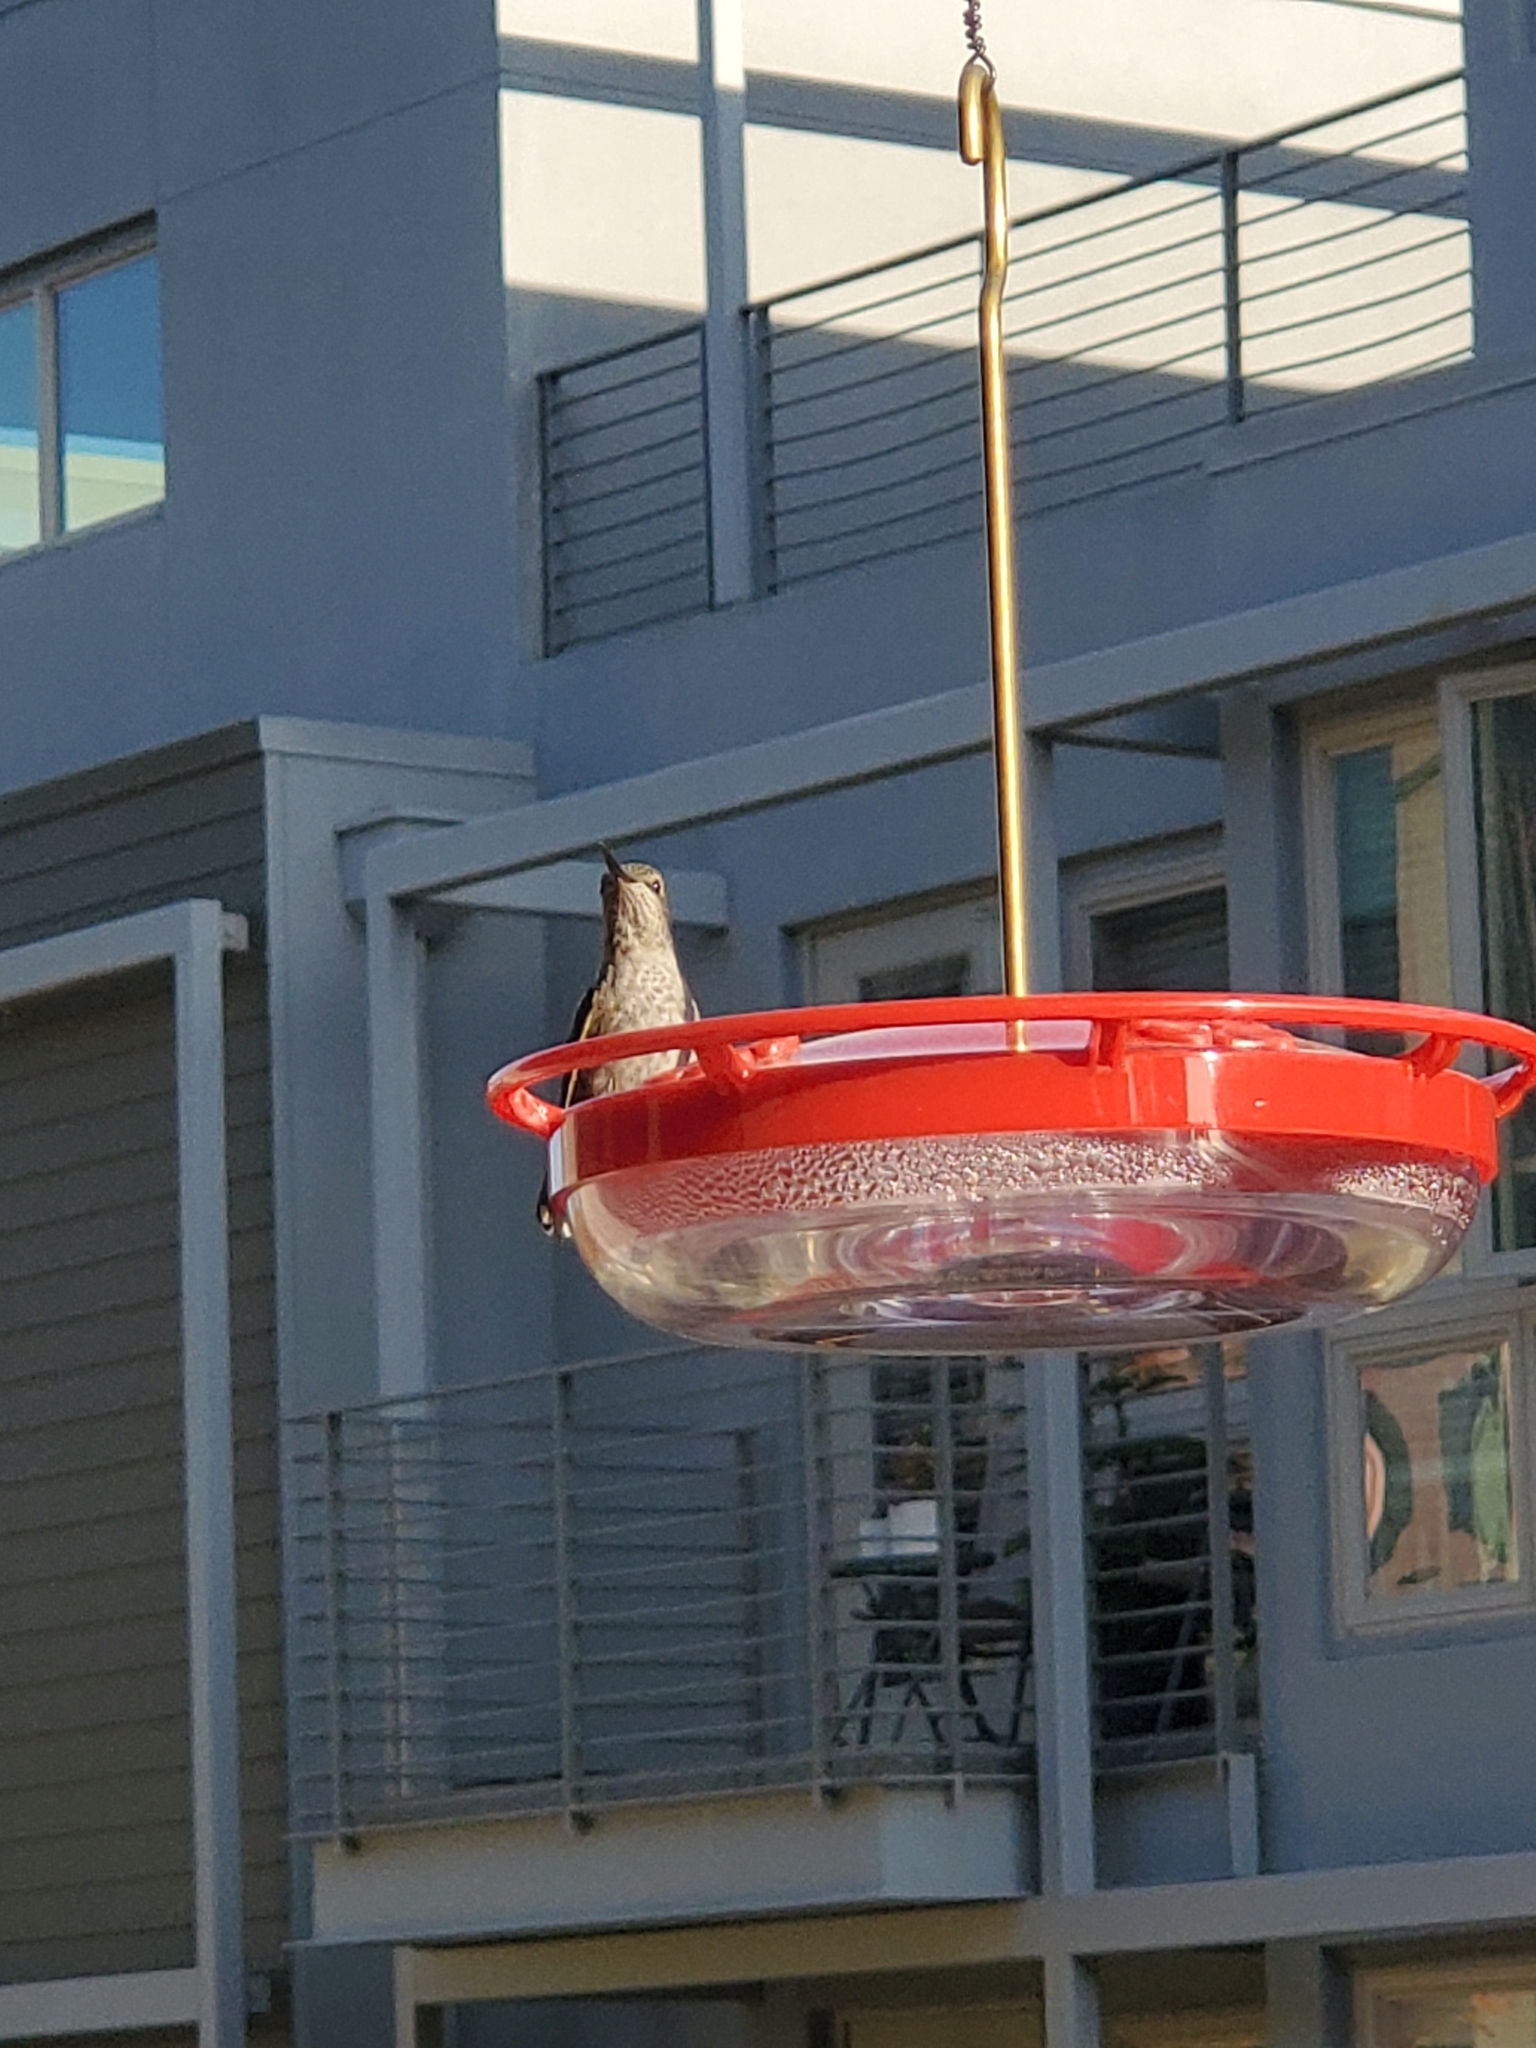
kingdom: Animalia
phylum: Chordata
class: Aves
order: Apodiformes
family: Trochilidae
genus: Calypte
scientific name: Calypte anna
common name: Anna's hummingbird
